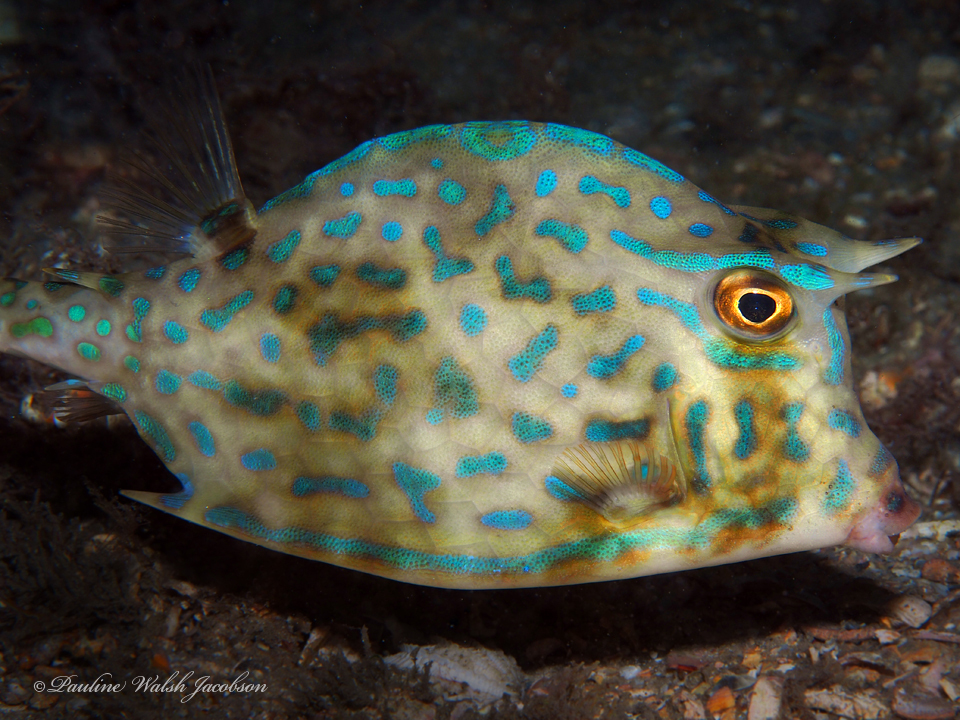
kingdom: Animalia
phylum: Chordata
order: Tetraodontiformes
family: Ostraciidae
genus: Acanthostracion
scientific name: Acanthostracion quadricornis
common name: Scrawled cowfish
